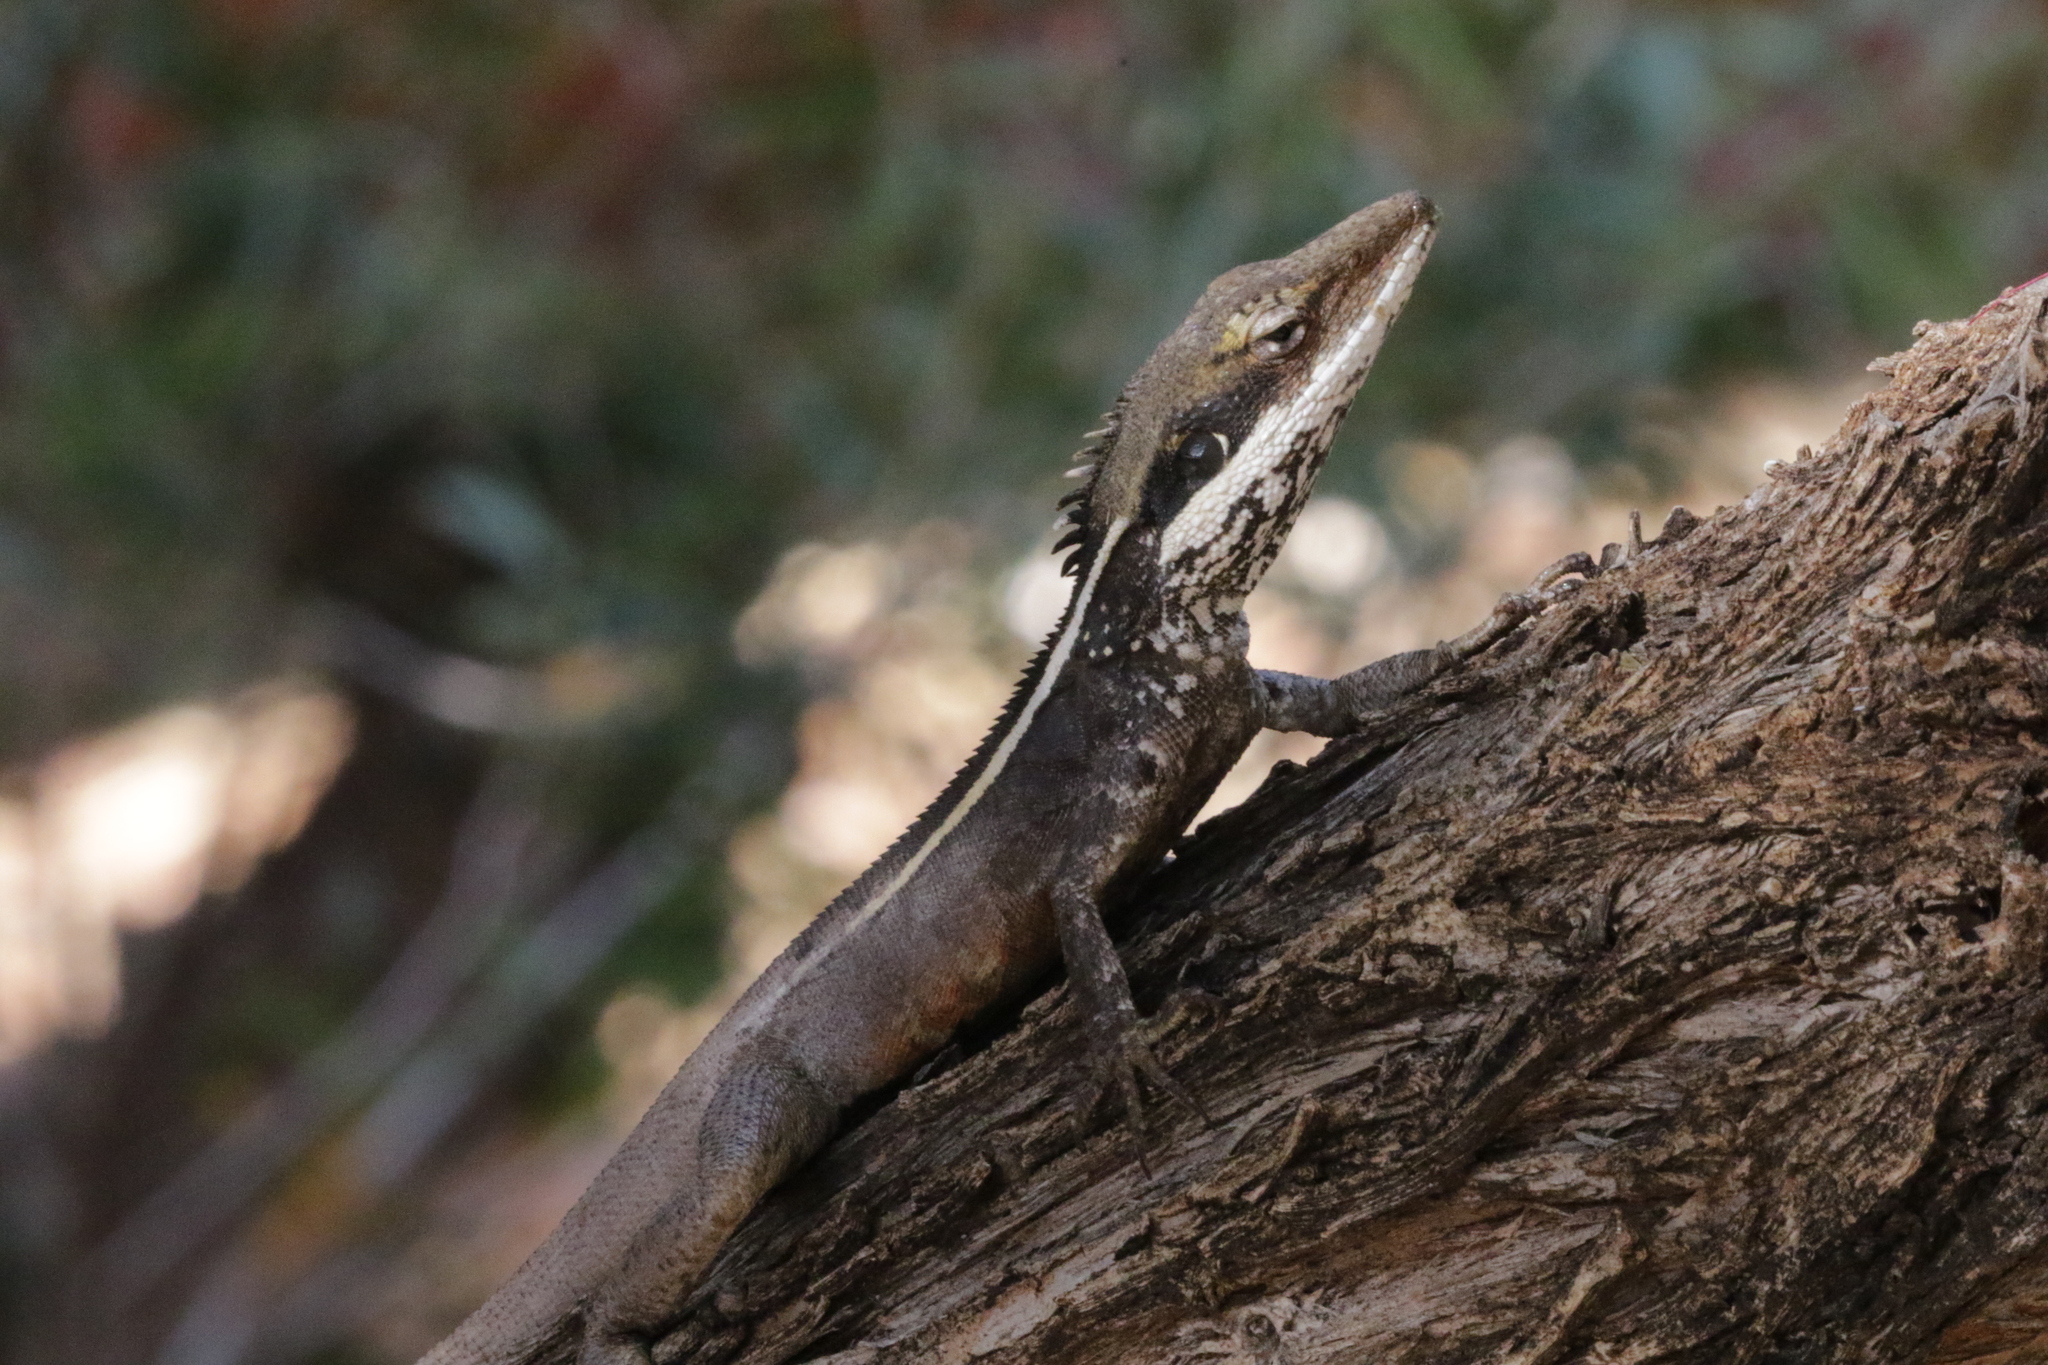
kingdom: Animalia
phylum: Chordata
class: Squamata
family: Agamidae
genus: Gowidon
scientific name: Gowidon longirostris
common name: Long-nosed water dragon
